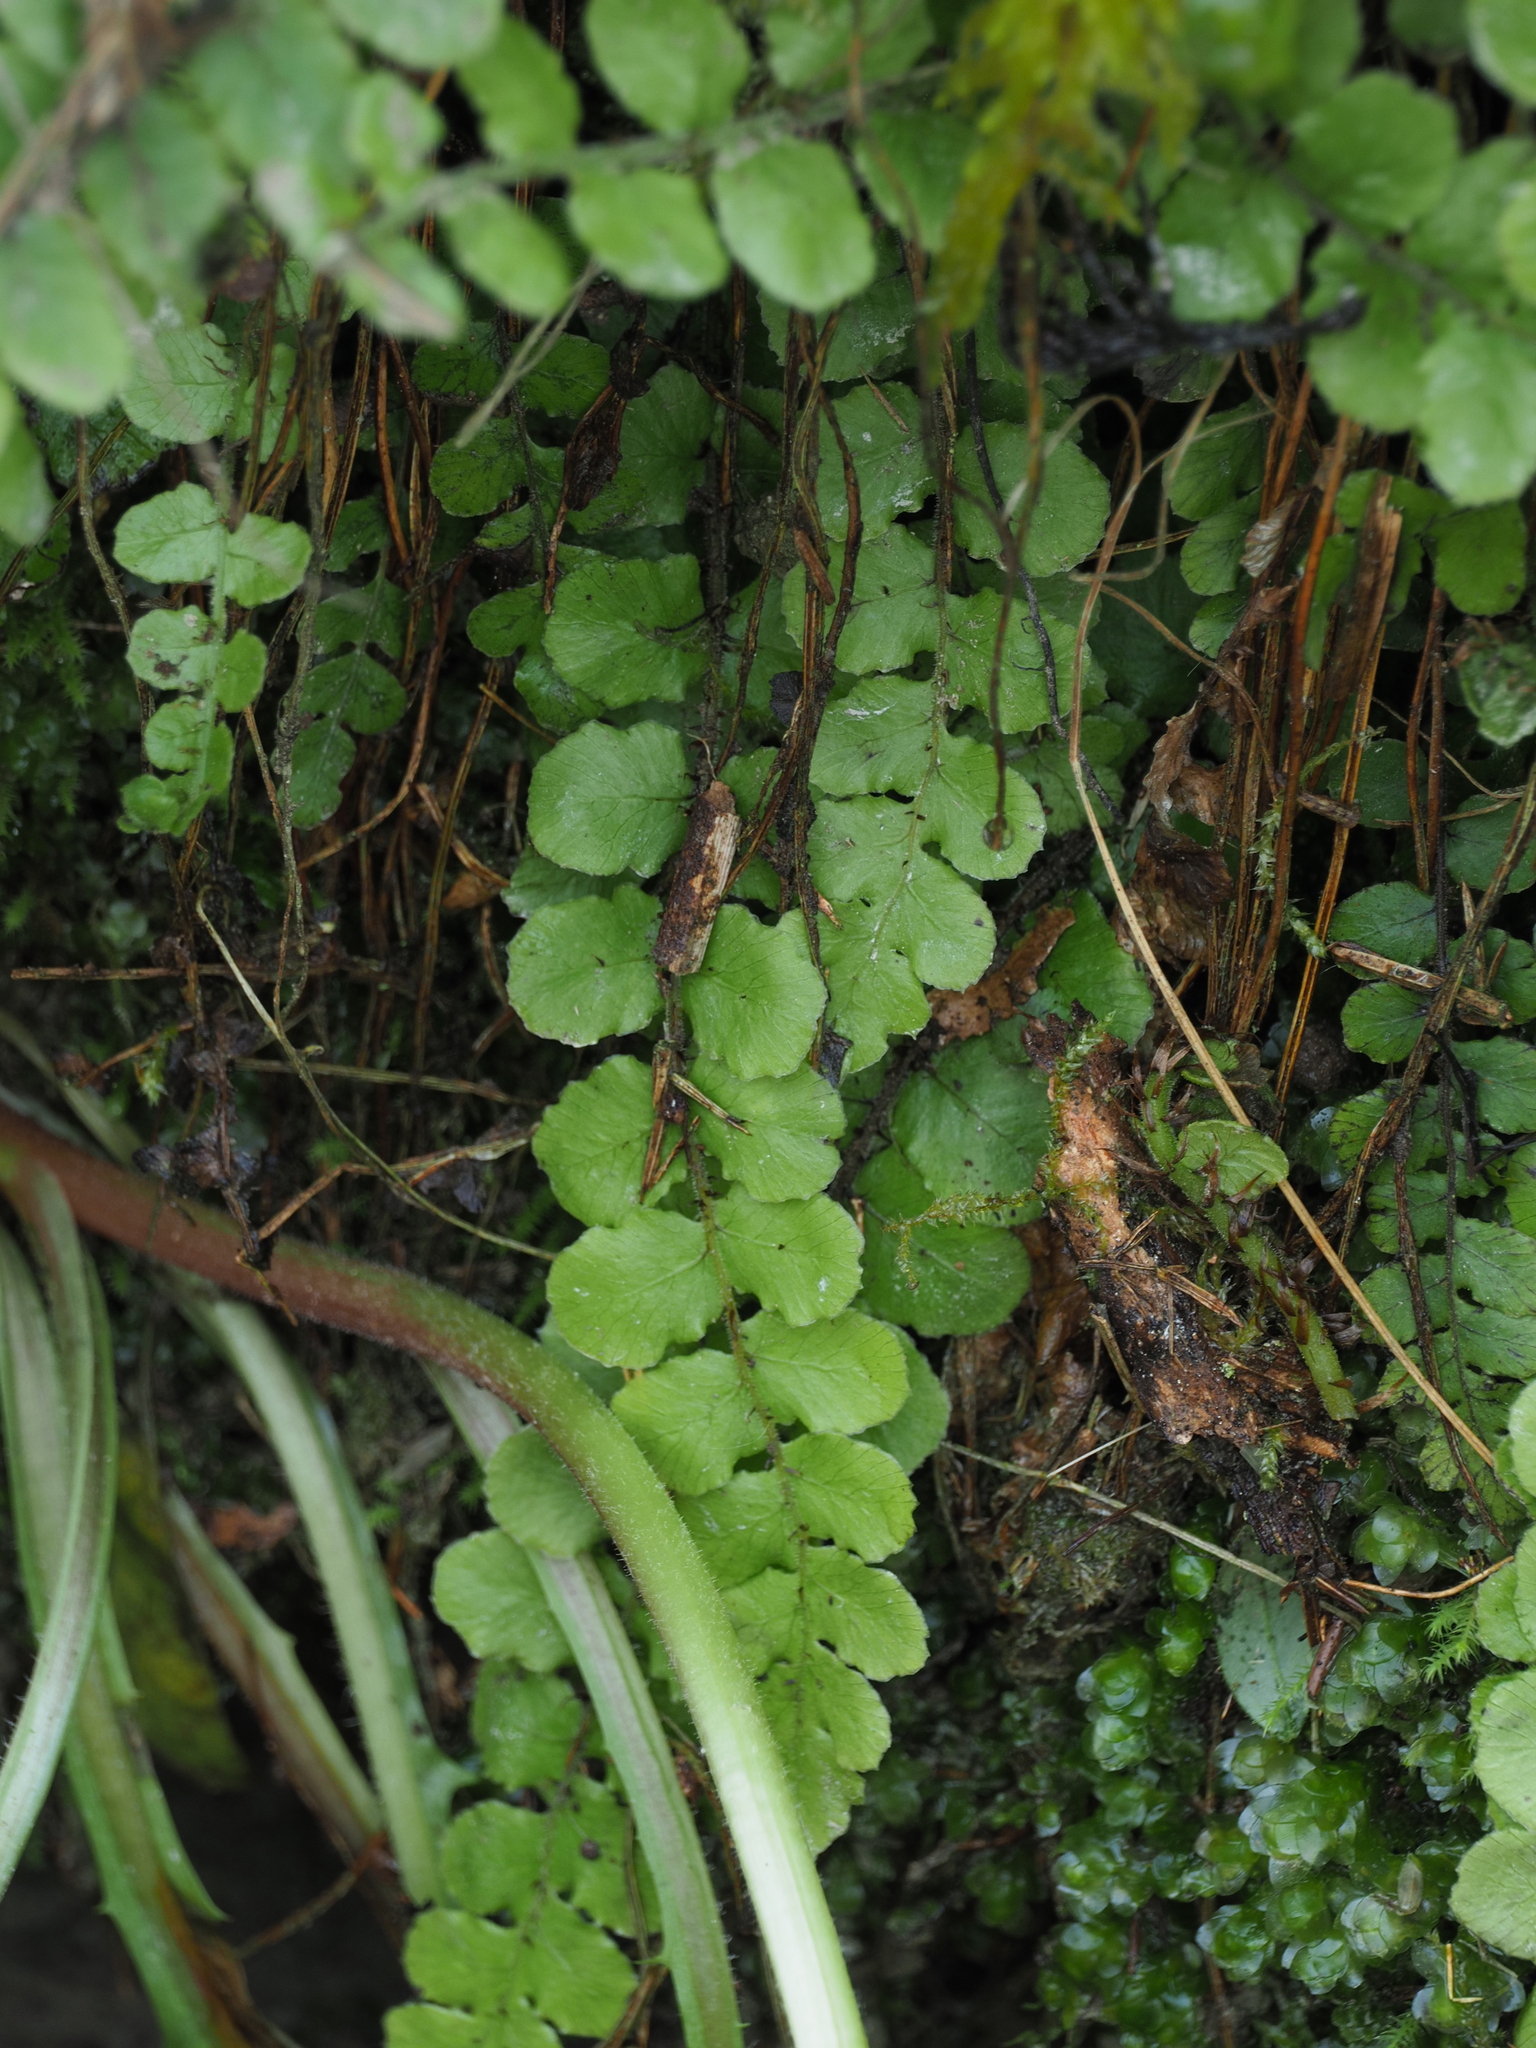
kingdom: Plantae
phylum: Tracheophyta
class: Polypodiopsida
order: Polypodiales
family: Blechnaceae
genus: Cranfillia
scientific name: Cranfillia fluviatilis
